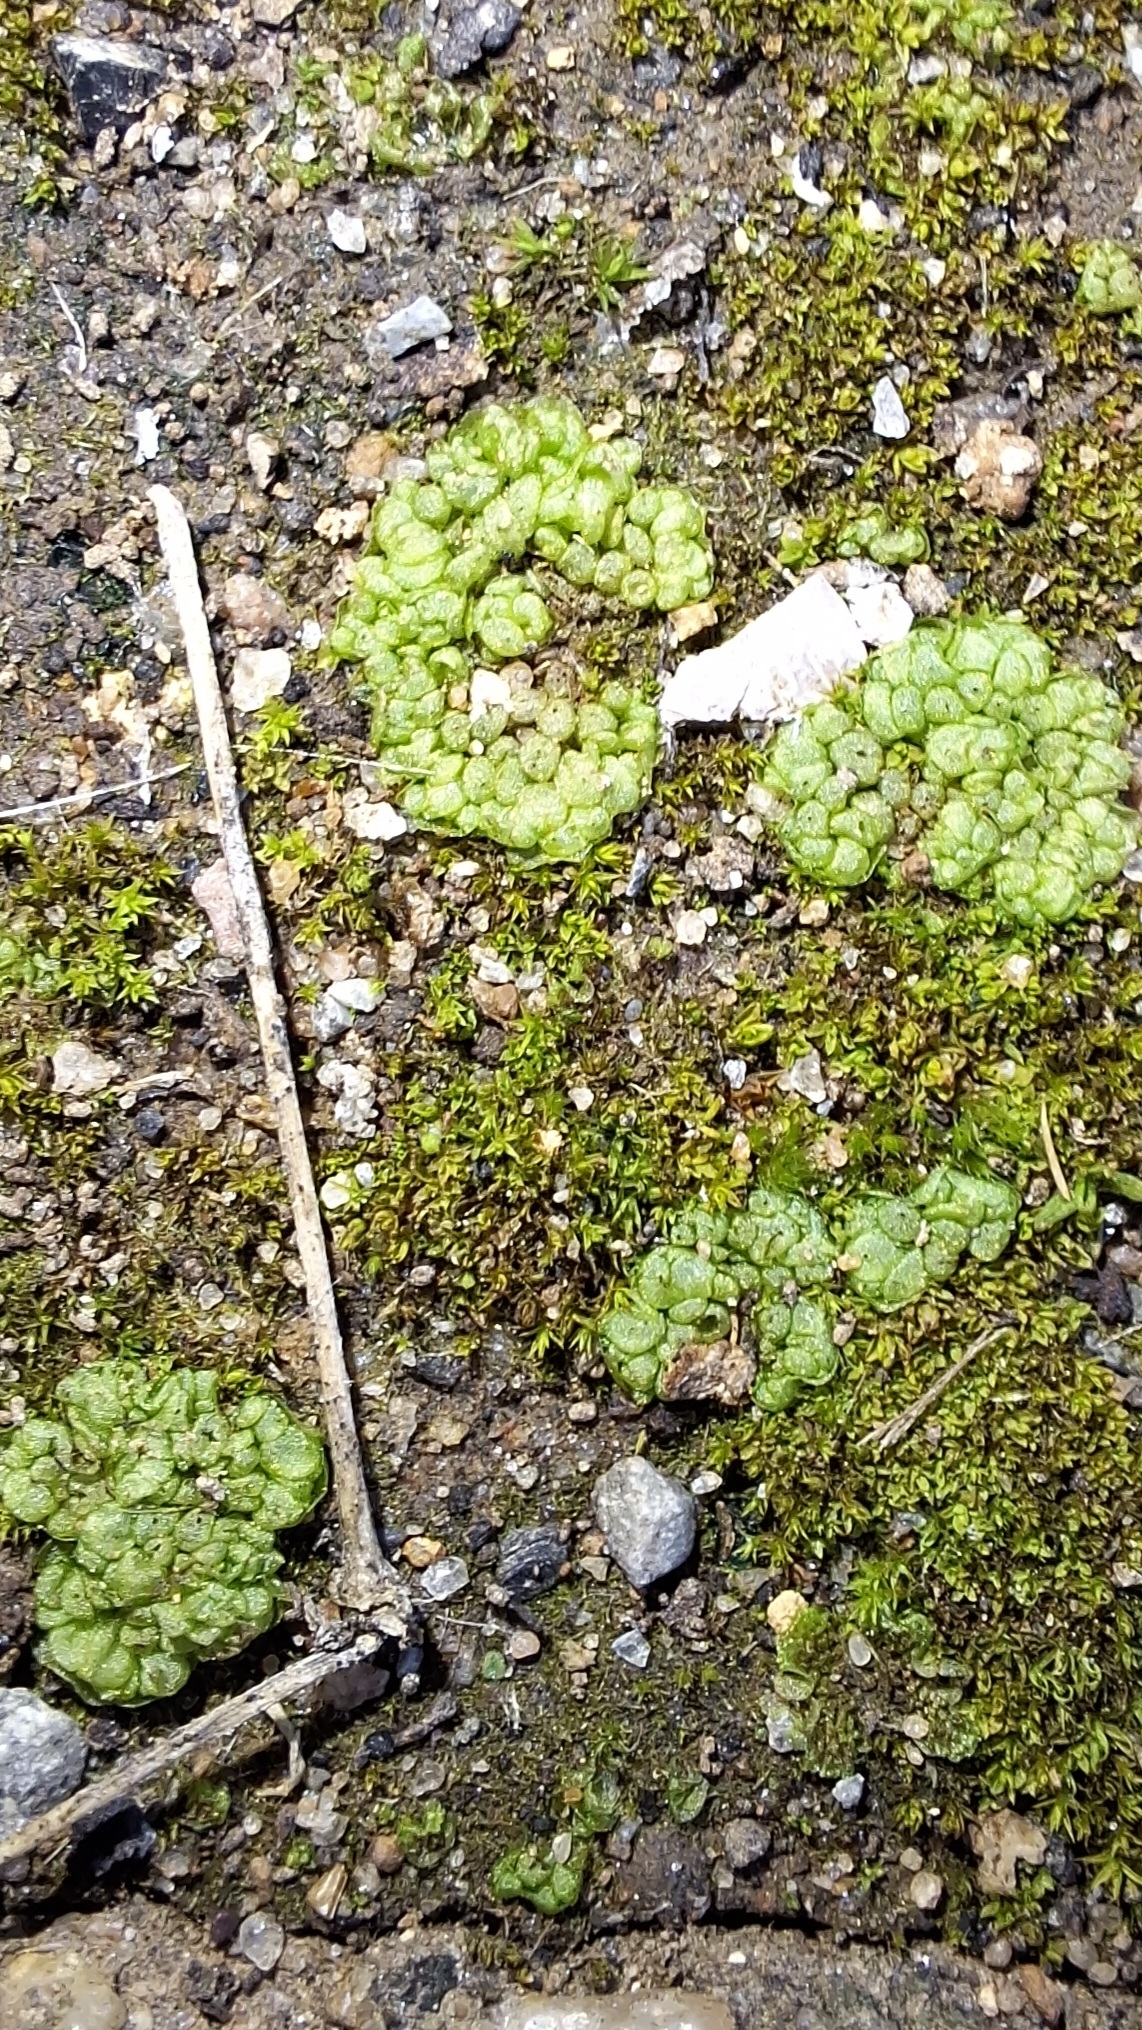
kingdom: Plantae
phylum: Marchantiophyta
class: Marchantiopsida
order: Sphaerocarpales
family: Sphaerocarpaceae
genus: Sphaerocarpos
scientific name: Sphaerocarpos texanus
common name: Texas balloonwort
